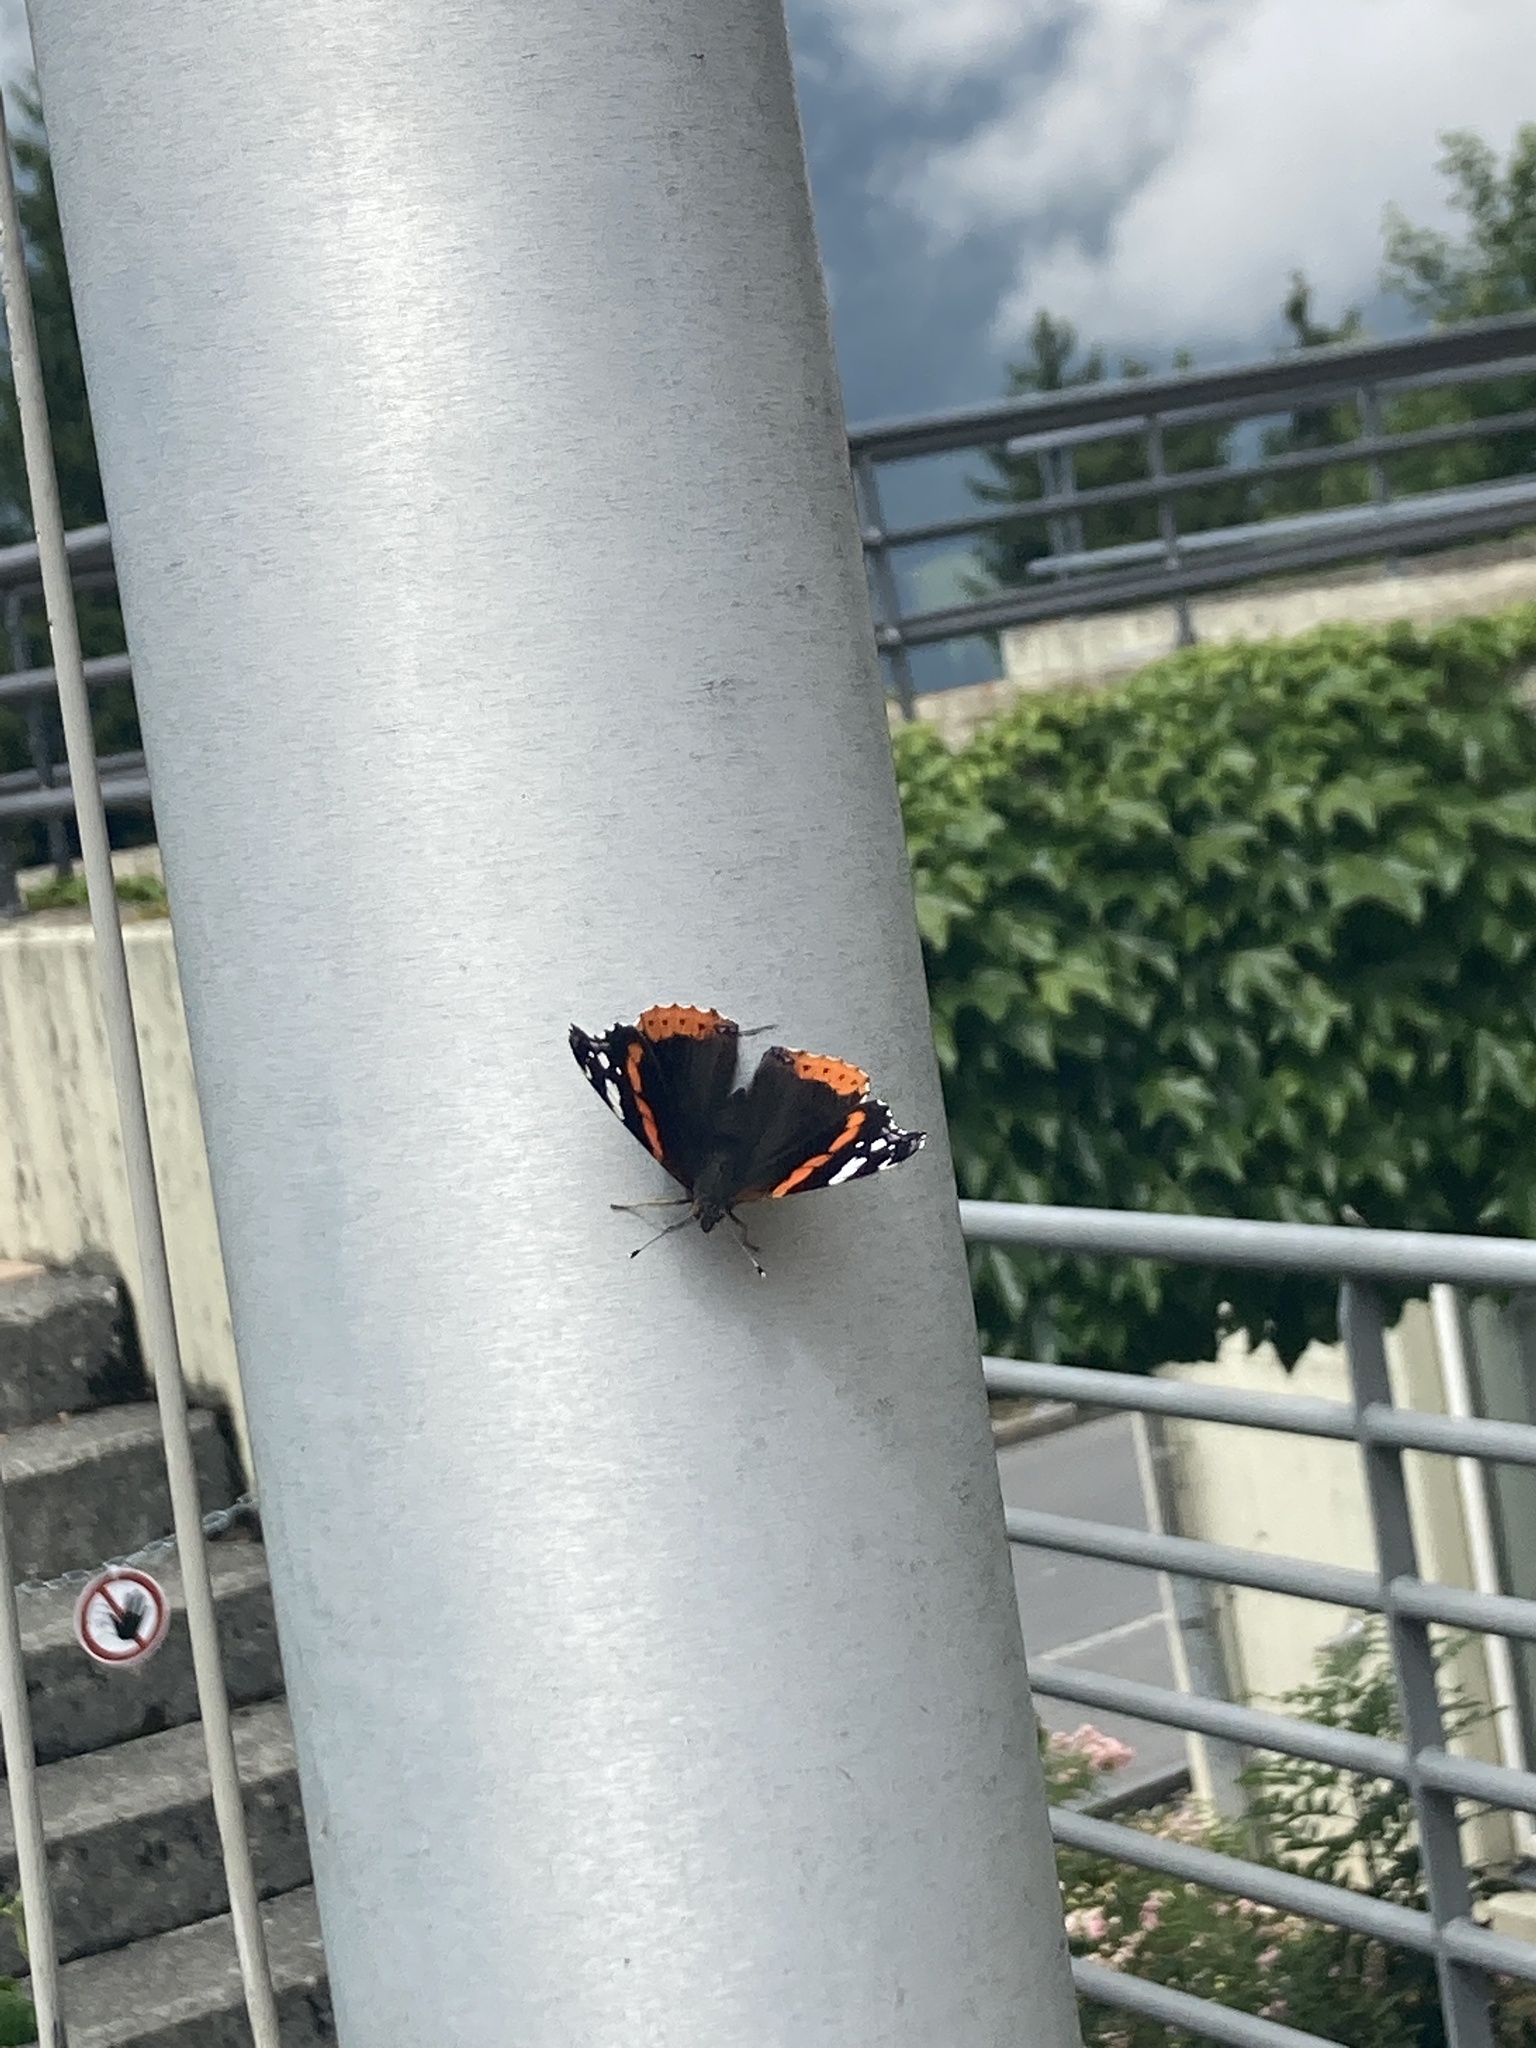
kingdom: Animalia
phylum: Arthropoda
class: Insecta
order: Lepidoptera
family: Nymphalidae
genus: Vanessa
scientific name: Vanessa atalanta
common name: Red admiral
